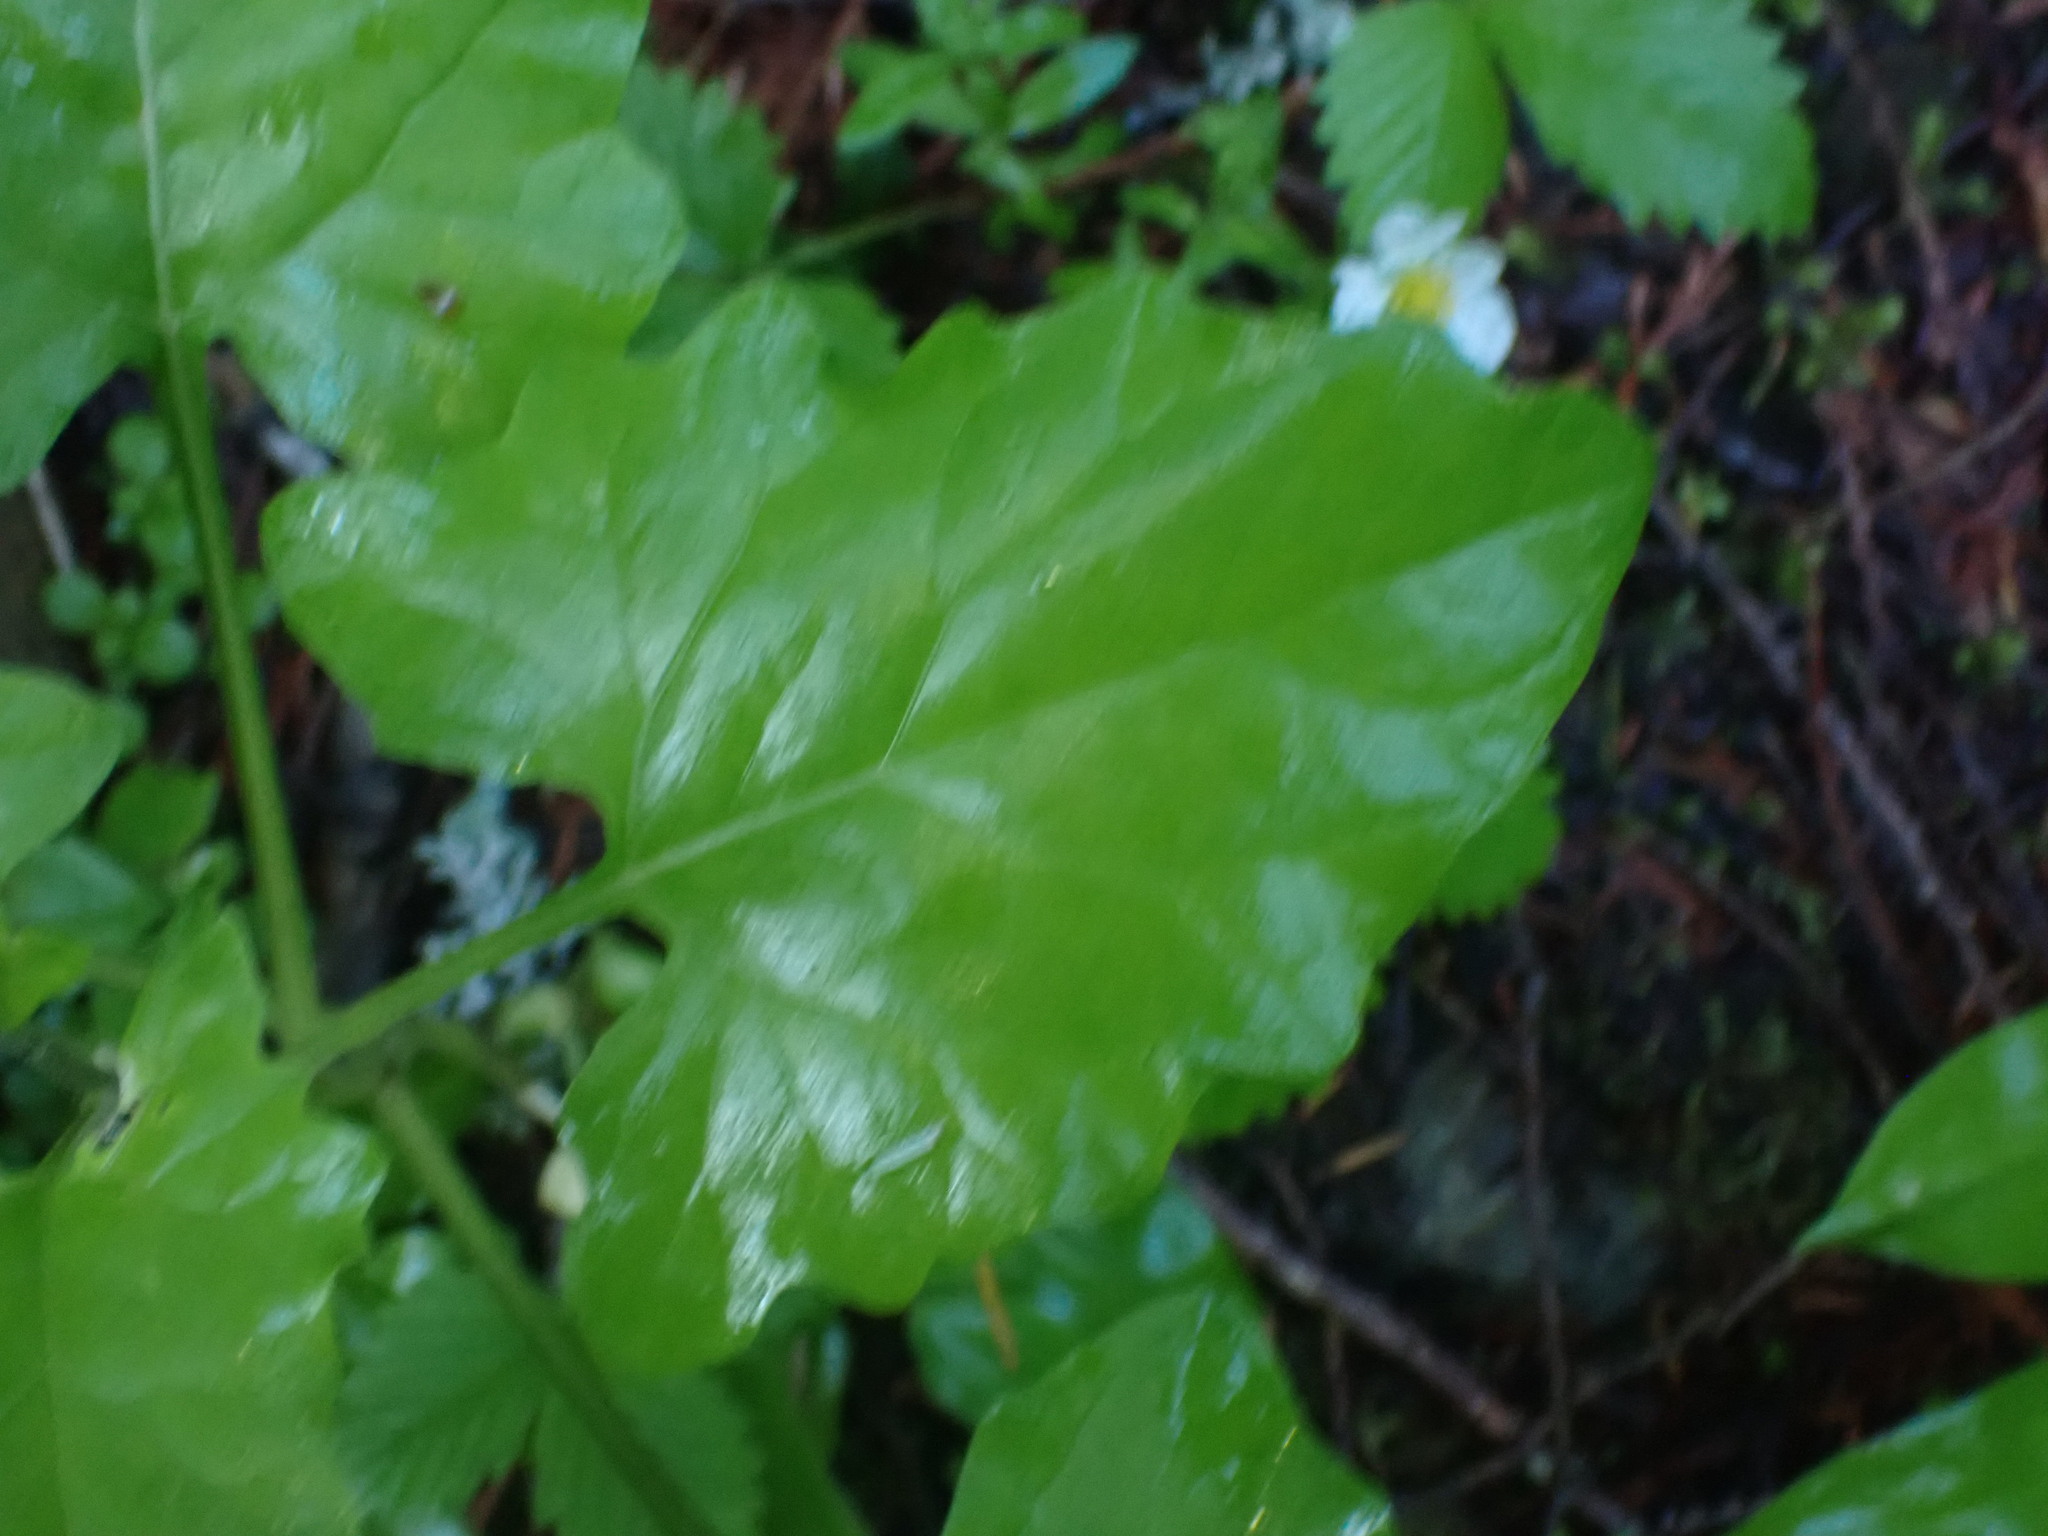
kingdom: Plantae
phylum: Tracheophyta
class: Magnoliopsida
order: Asterales
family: Asteraceae
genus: Adenocaulon
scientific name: Adenocaulon bicolor
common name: Trailplant
